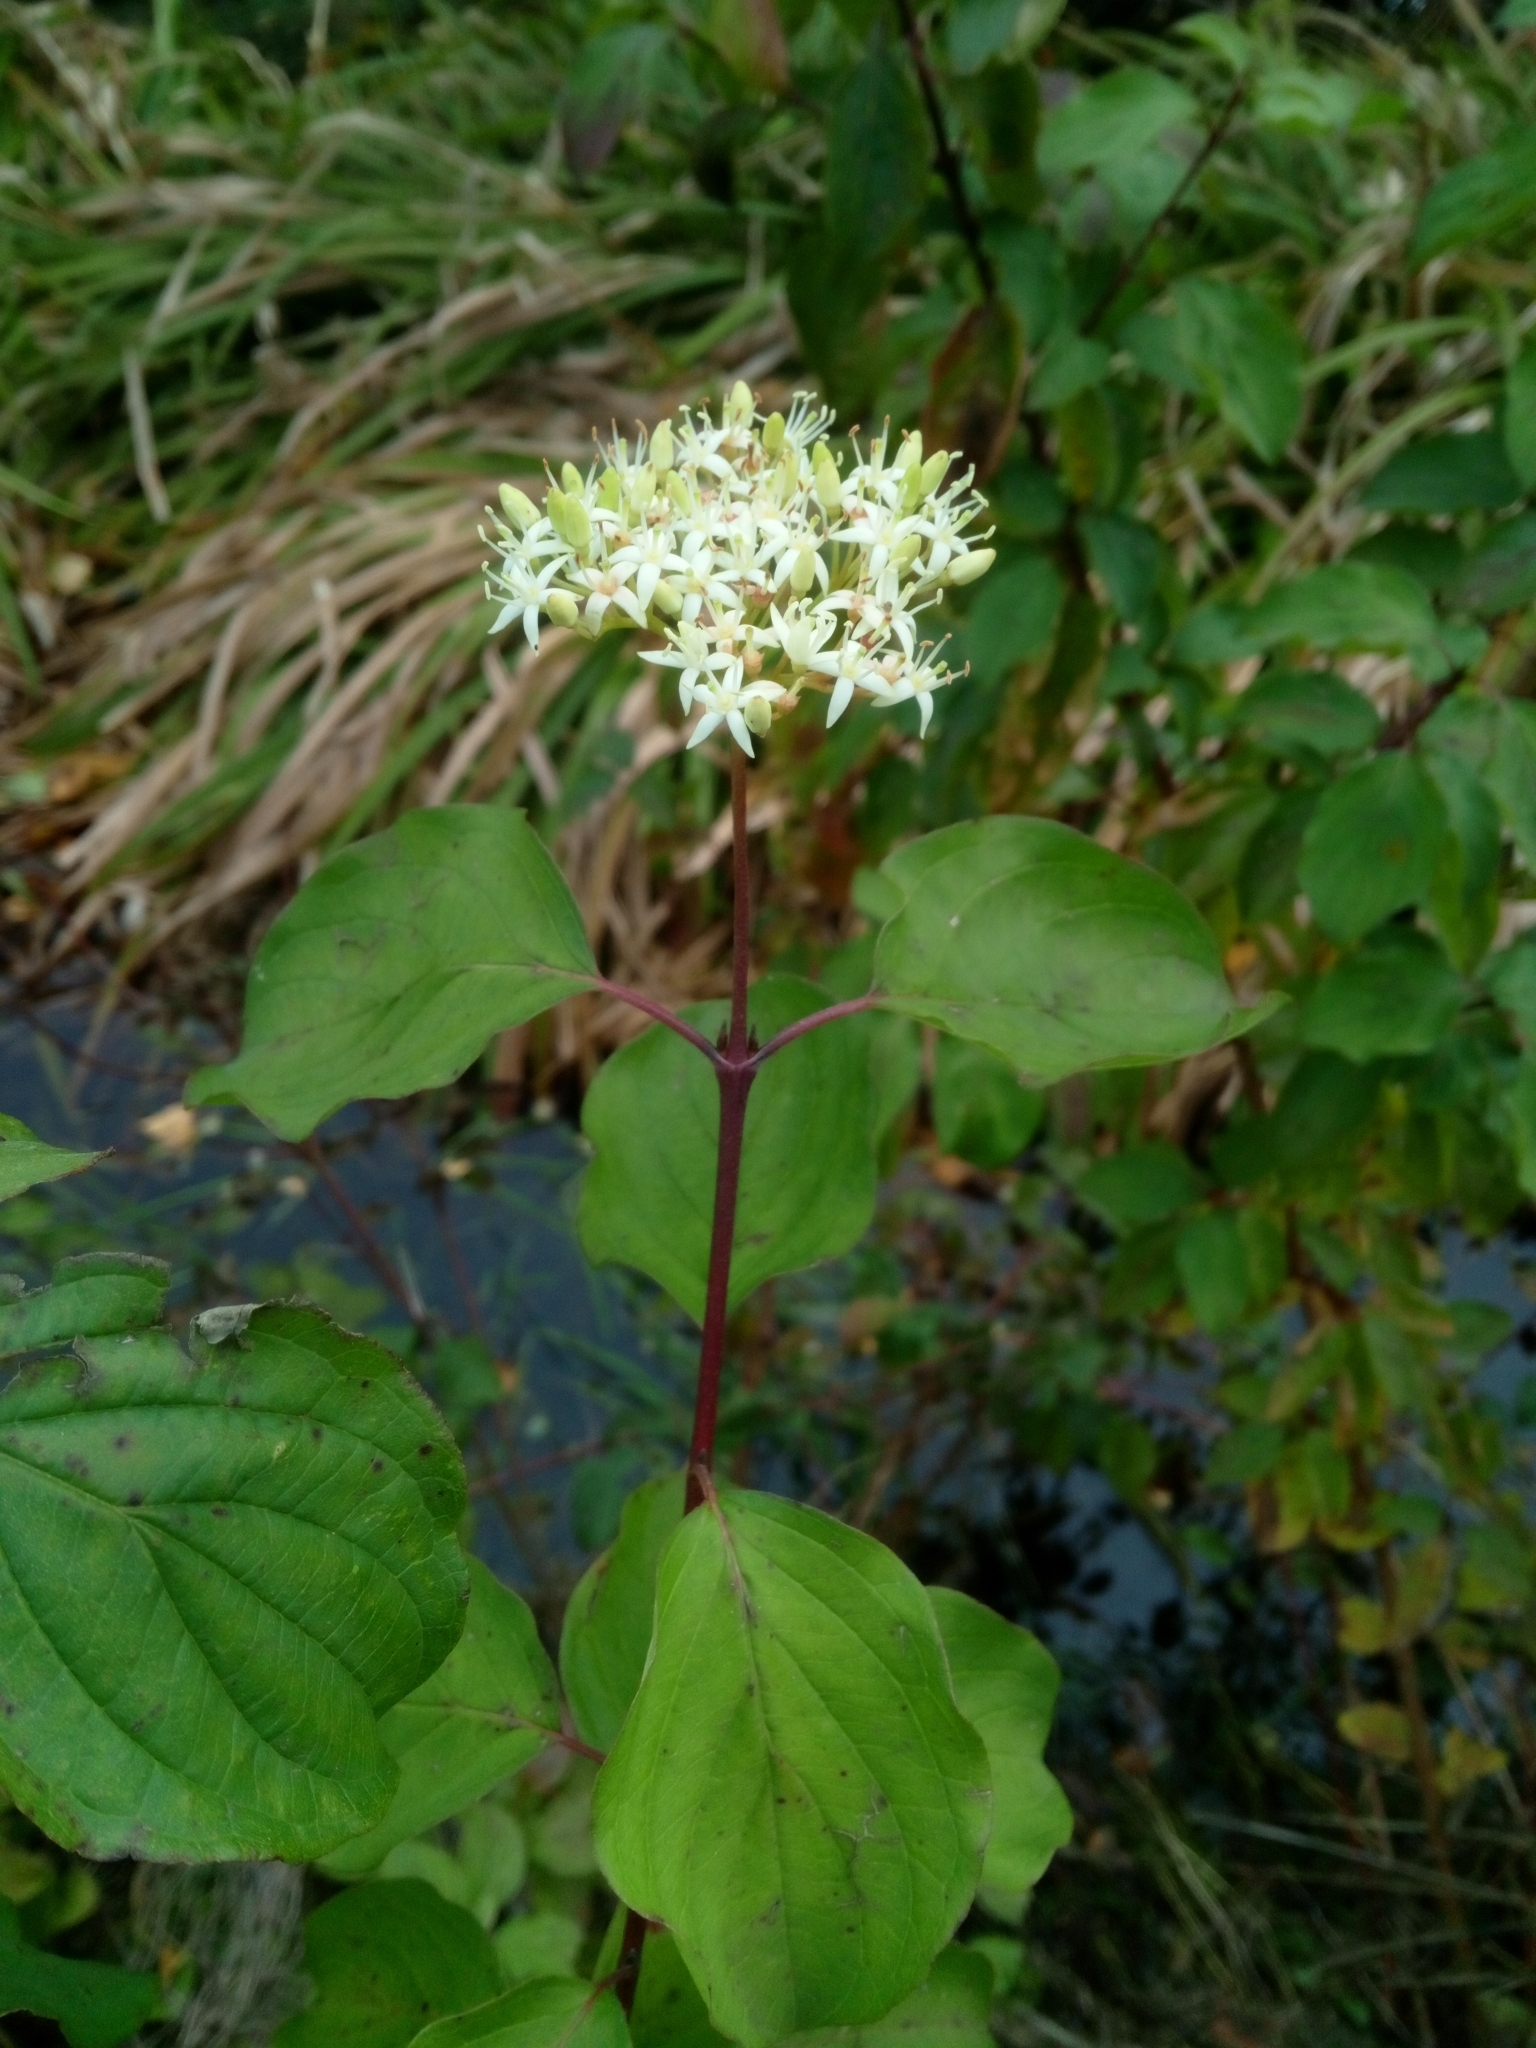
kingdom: Plantae
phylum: Tracheophyta
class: Magnoliopsida
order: Cornales
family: Cornaceae
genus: Cornus
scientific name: Cornus sanguinea
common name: Dogwood
